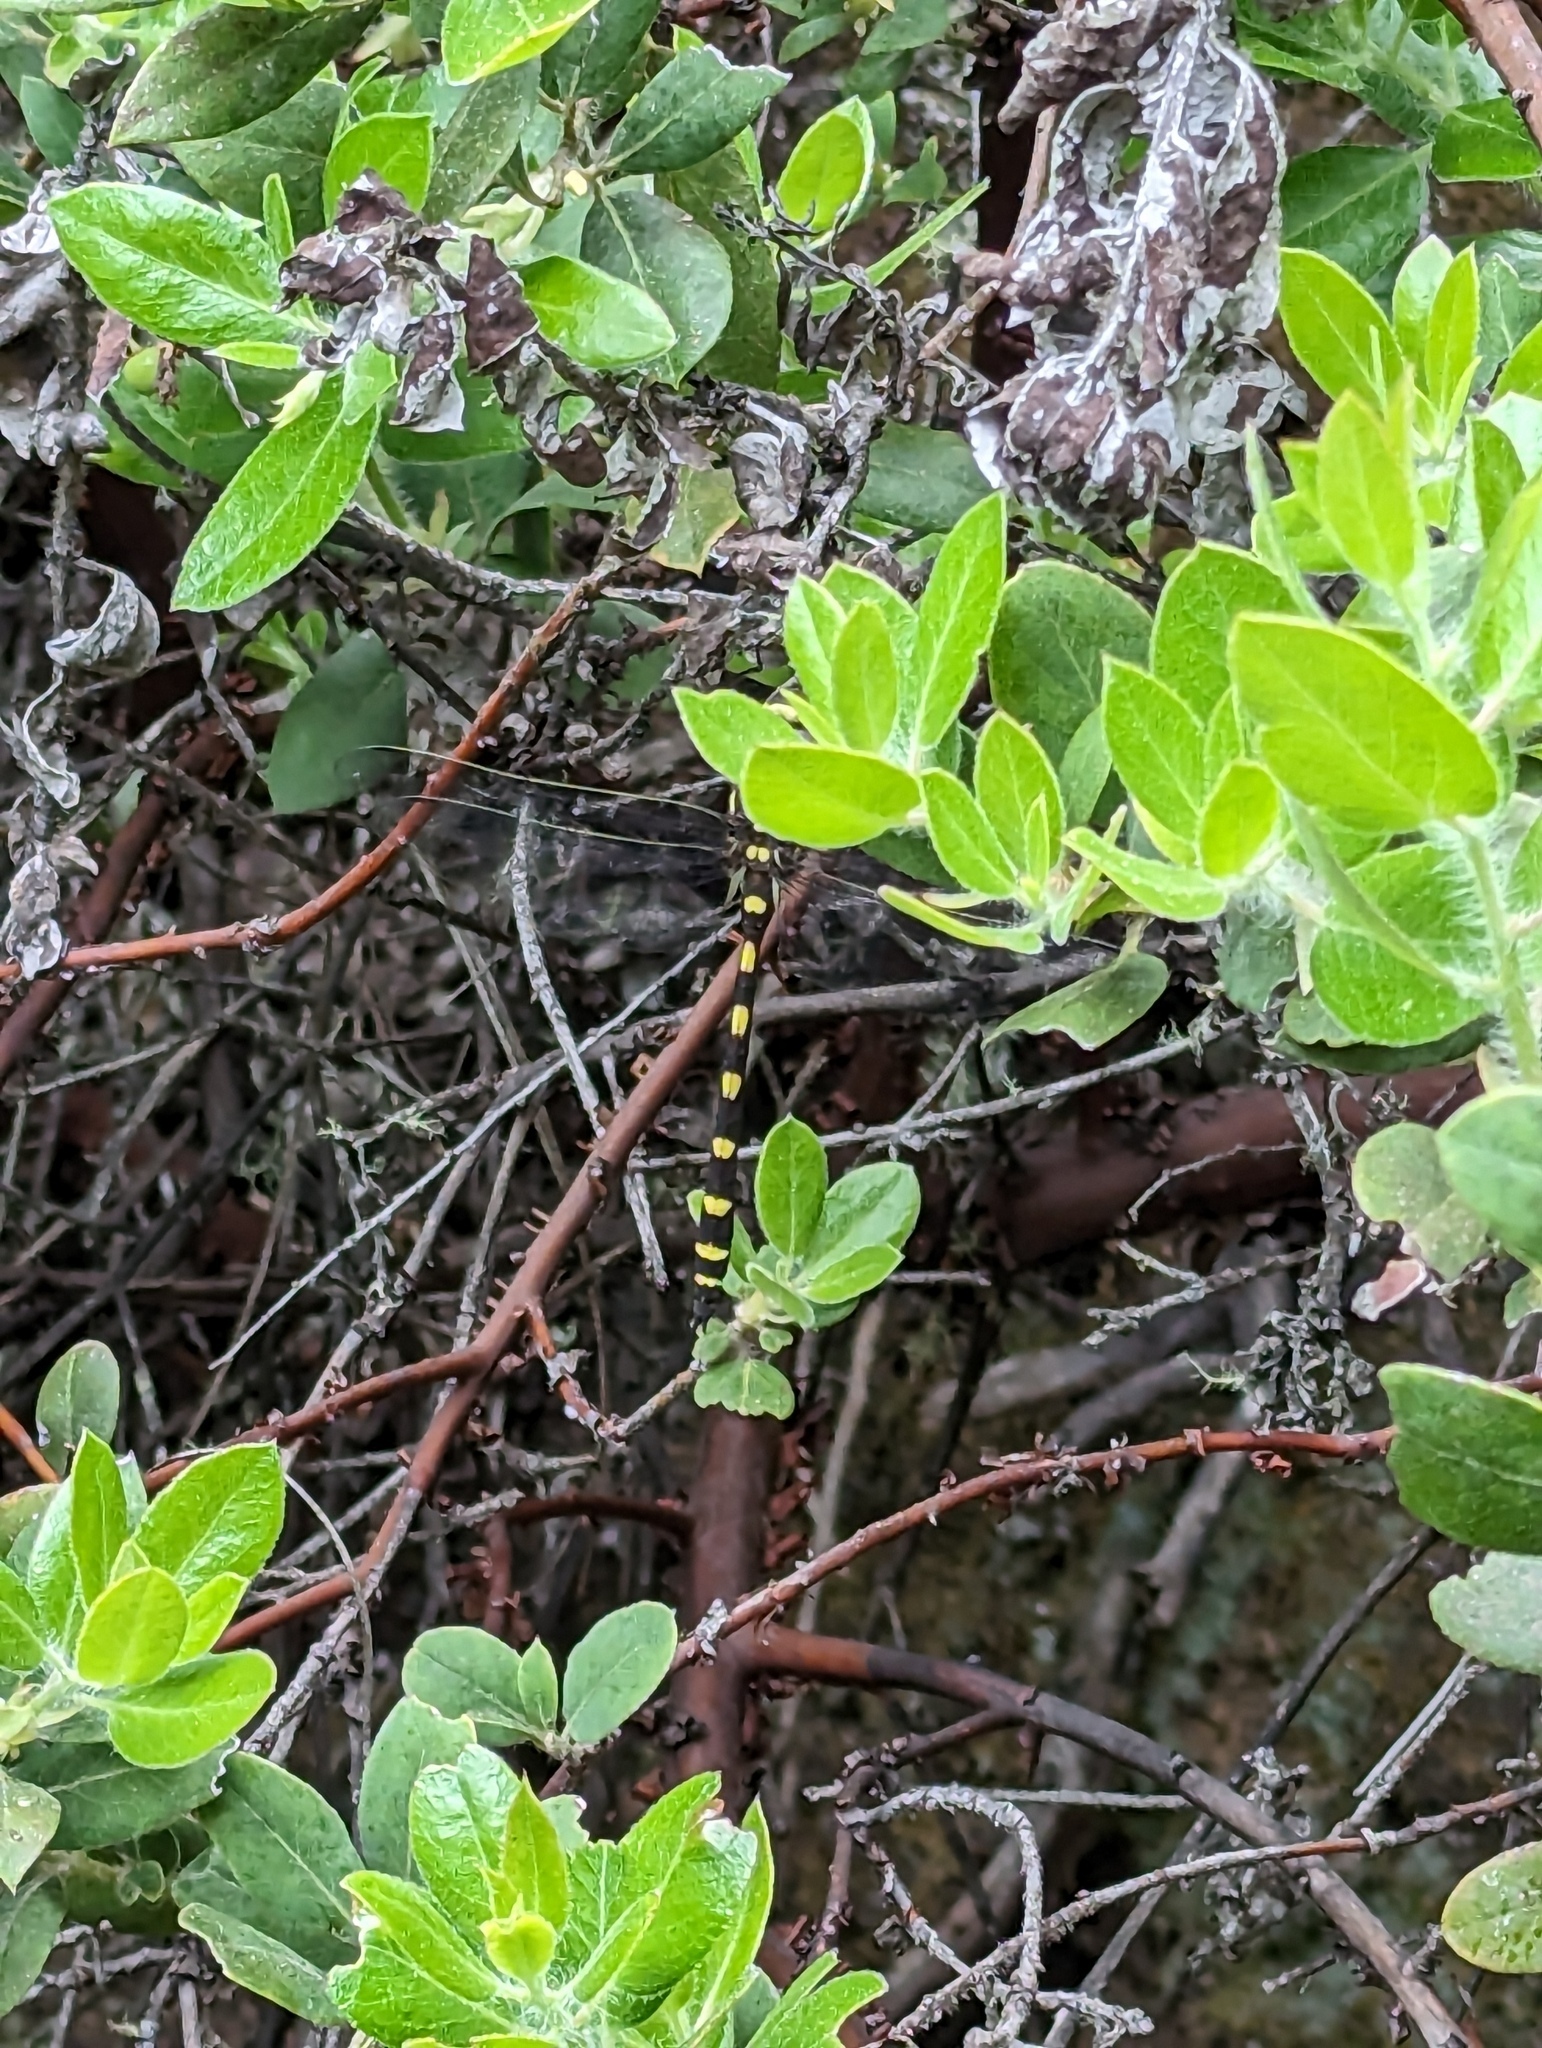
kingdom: Animalia
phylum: Arthropoda
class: Insecta
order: Odonata
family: Cordulegastridae
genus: Cordulegaster
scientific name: Cordulegaster dorsalis
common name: Pacific spiketail
